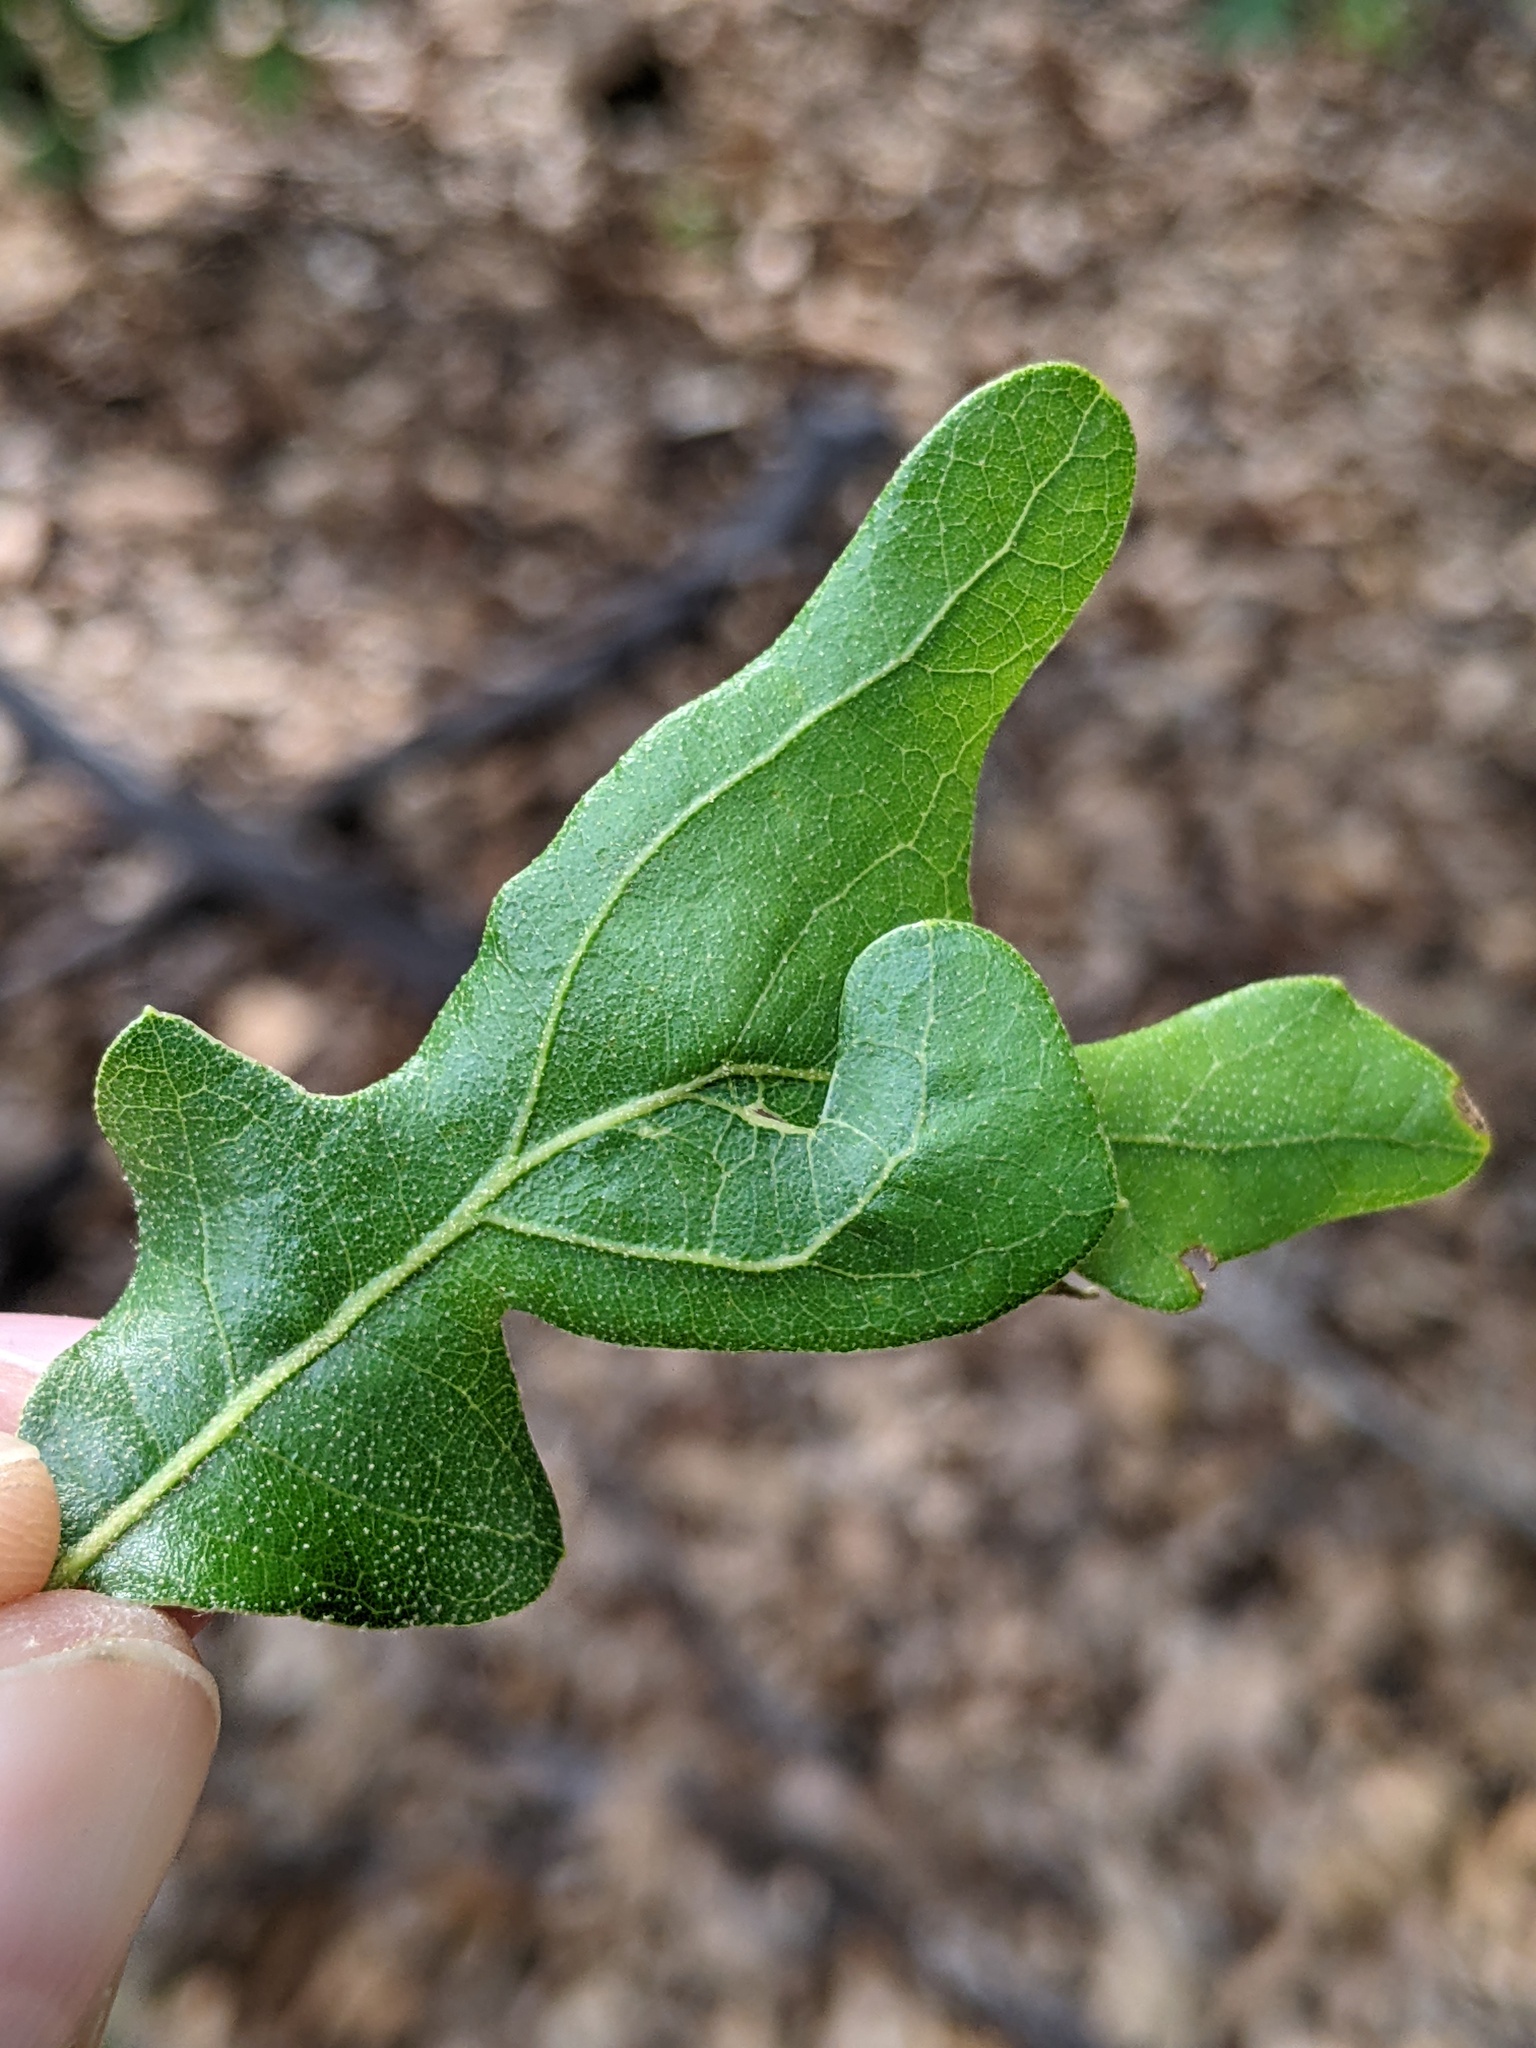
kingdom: Animalia
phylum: Arthropoda
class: Insecta
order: Hymenoptera
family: Cynipidae
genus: Andricus
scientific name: Andricus
